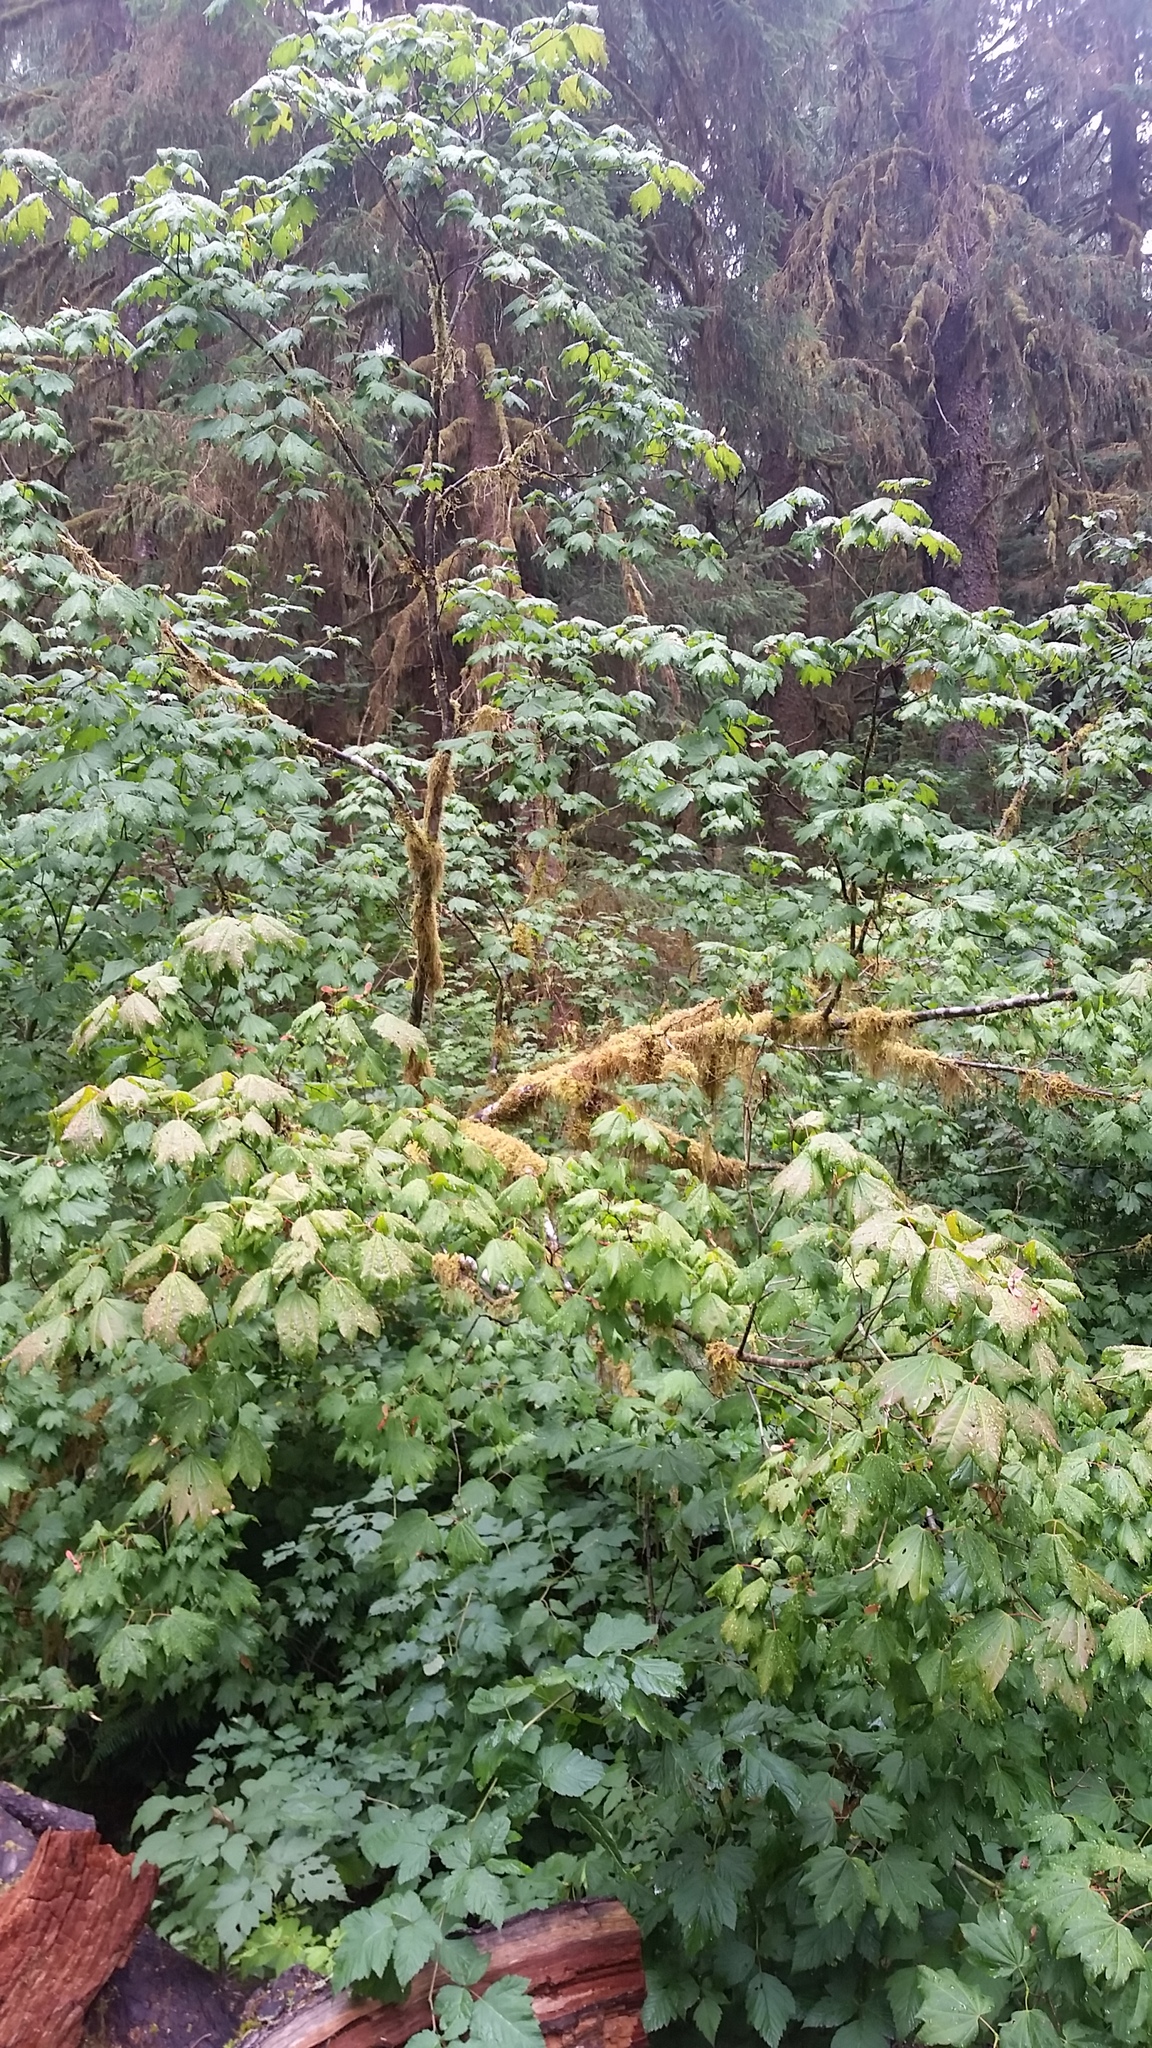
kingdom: Plantae
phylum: Tracheophyta
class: Magnoliopsida
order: Sapindales
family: Sapindaceae
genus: Acer
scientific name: Acer circinatum
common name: Vine maple
